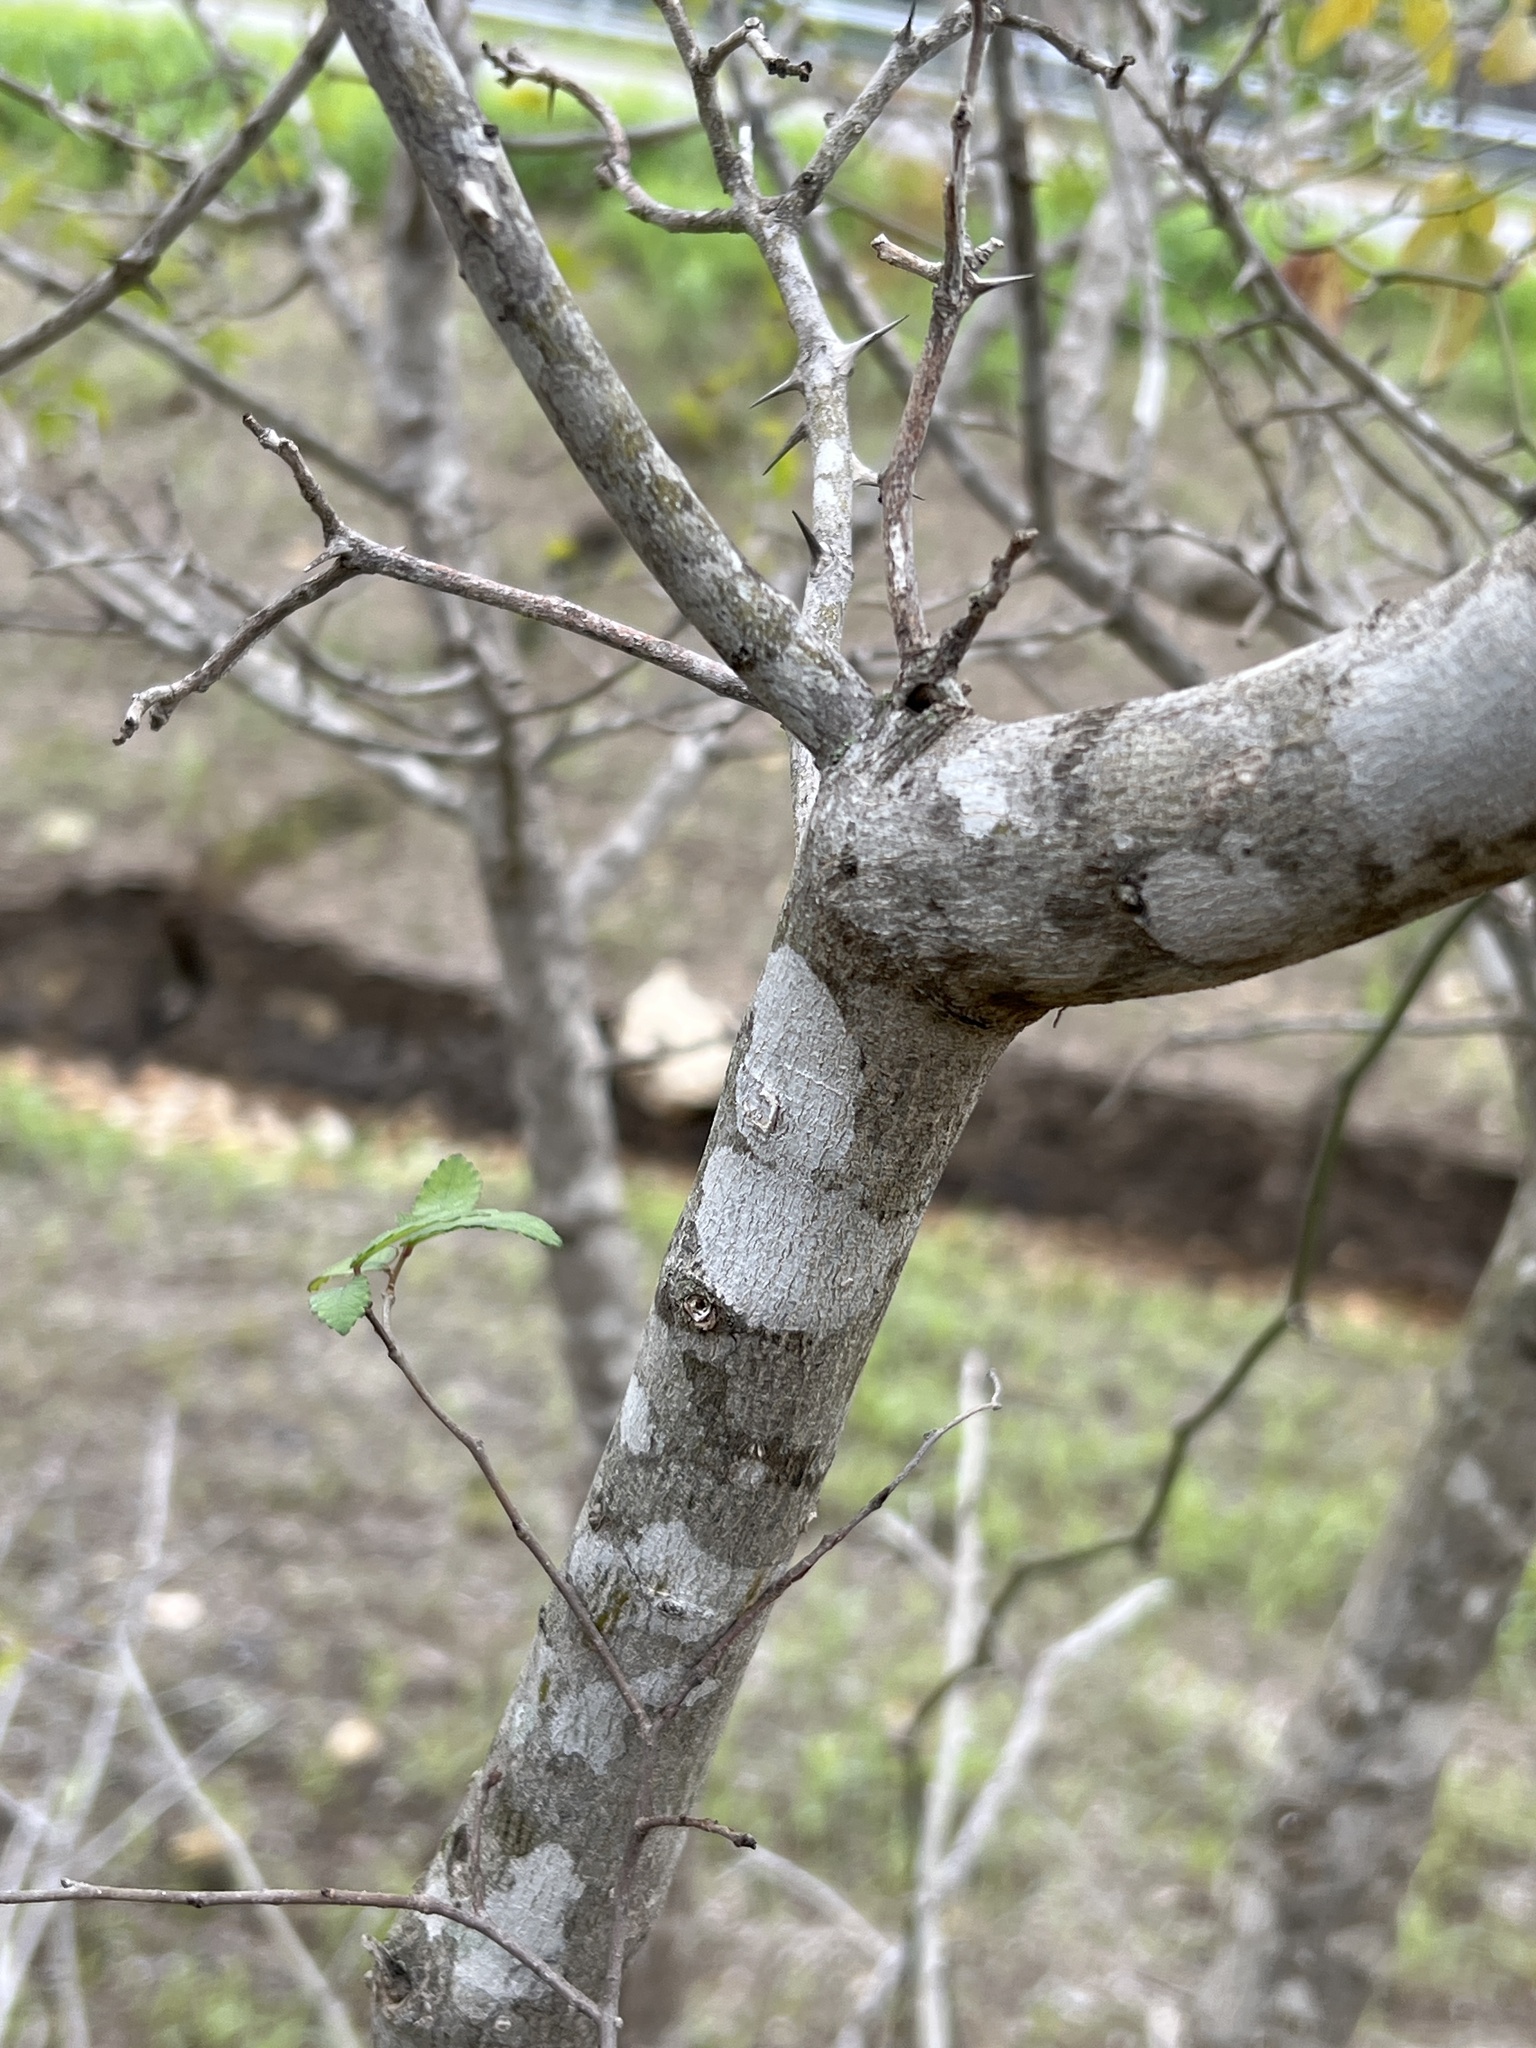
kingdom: Plantae
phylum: Tracheophyta
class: Magnoliopsida
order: Sapindales
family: Rutaceae
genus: Zanthoxylum
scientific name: Zanthoxylum clava-herculis
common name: Hercules'-club
